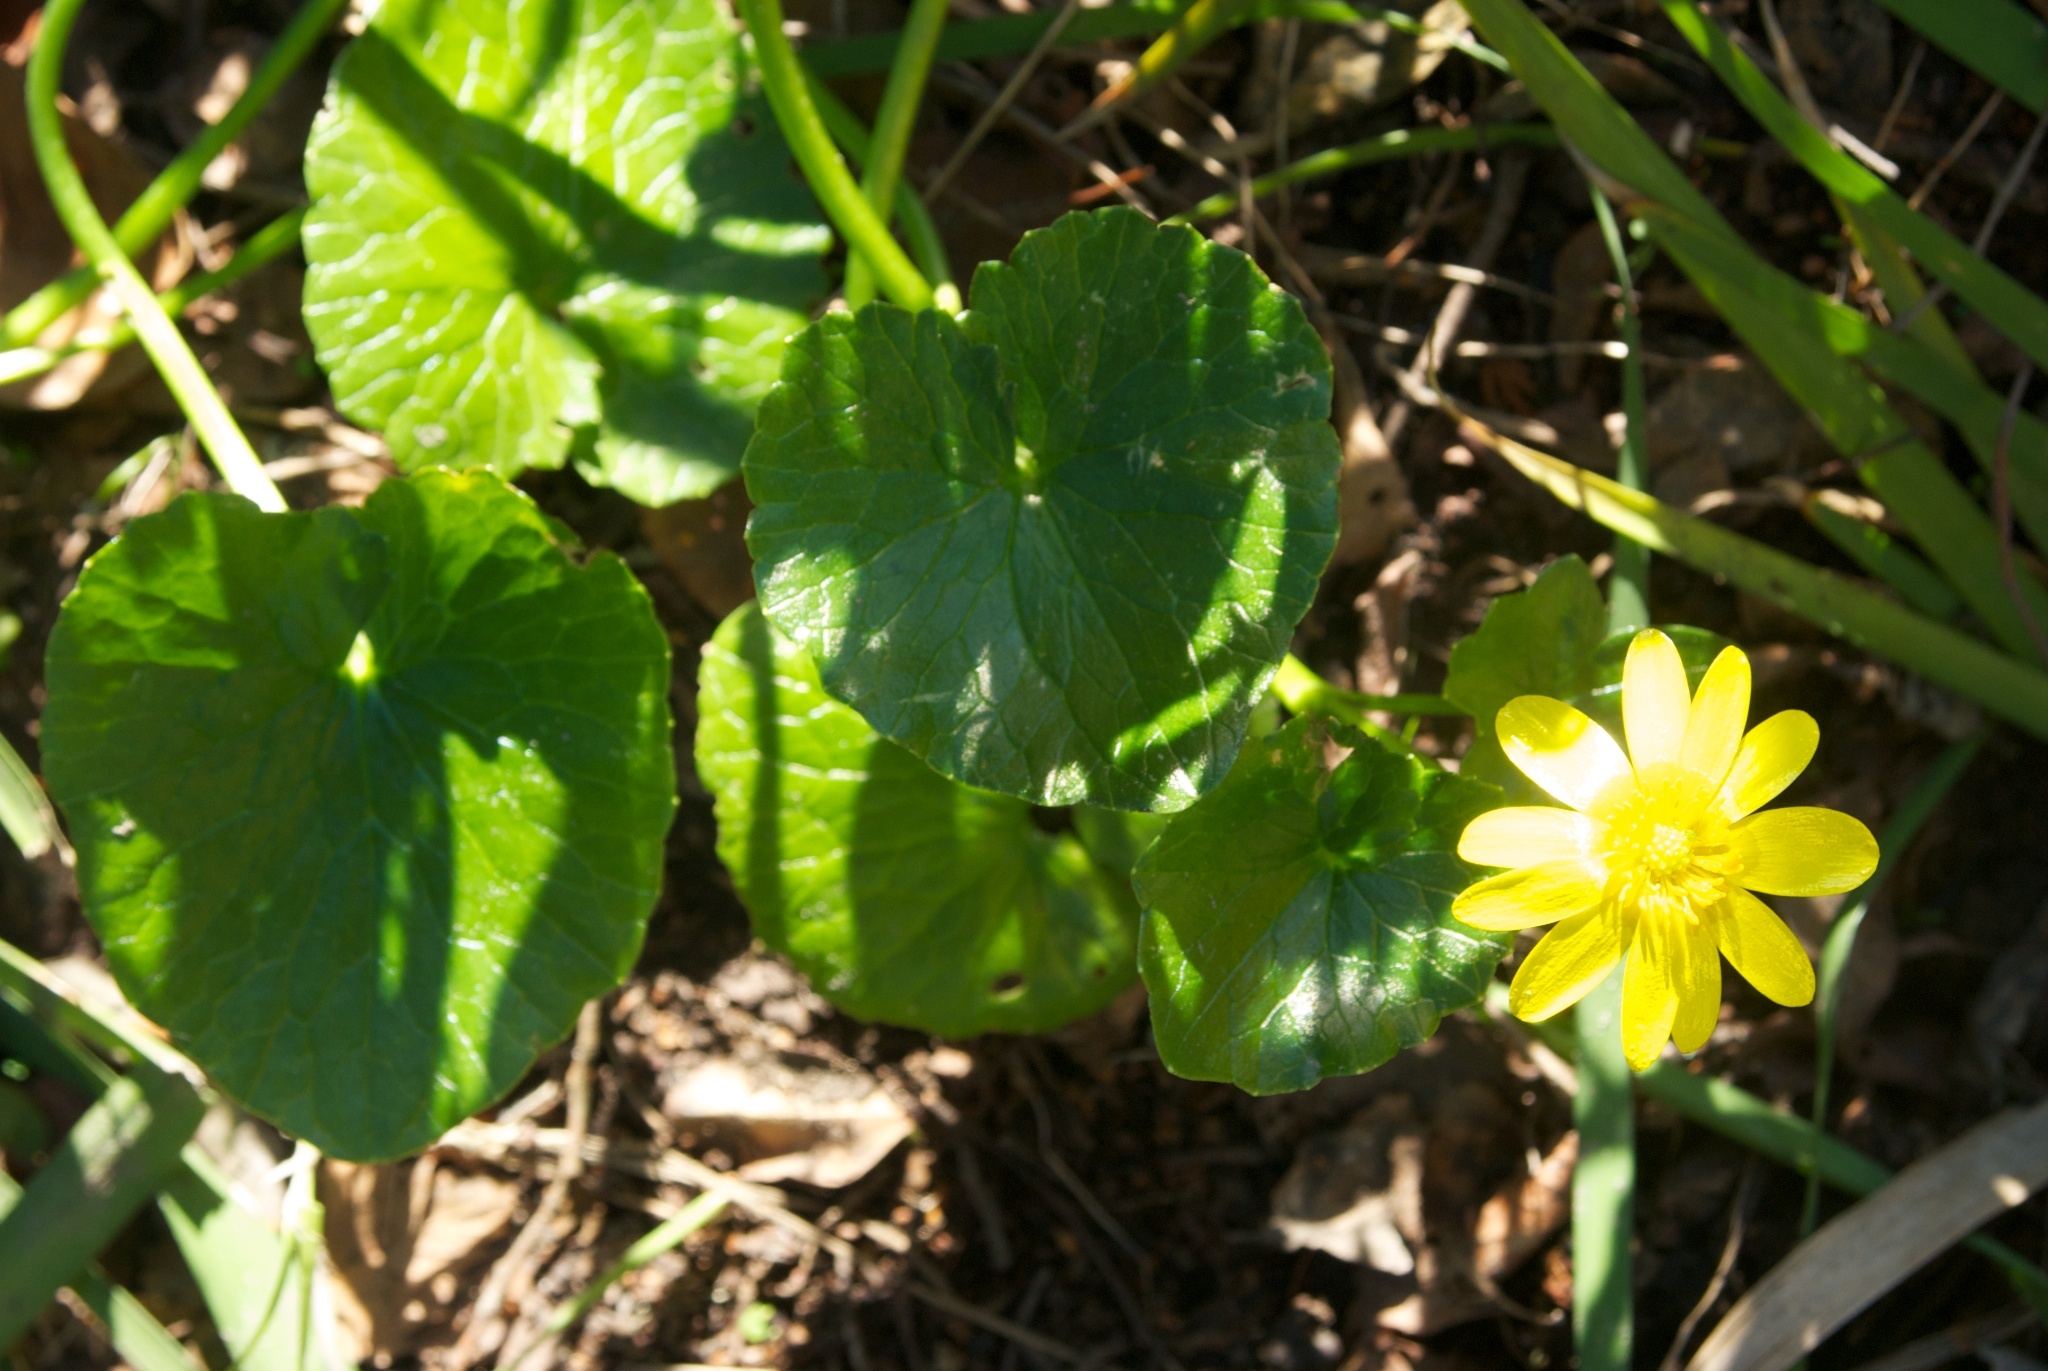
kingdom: Plantae
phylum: Tracheophyta
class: Magnoliopsida
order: Ranunculales
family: Ranunculaceae
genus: Ficaria
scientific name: Ficaria grandiflora
